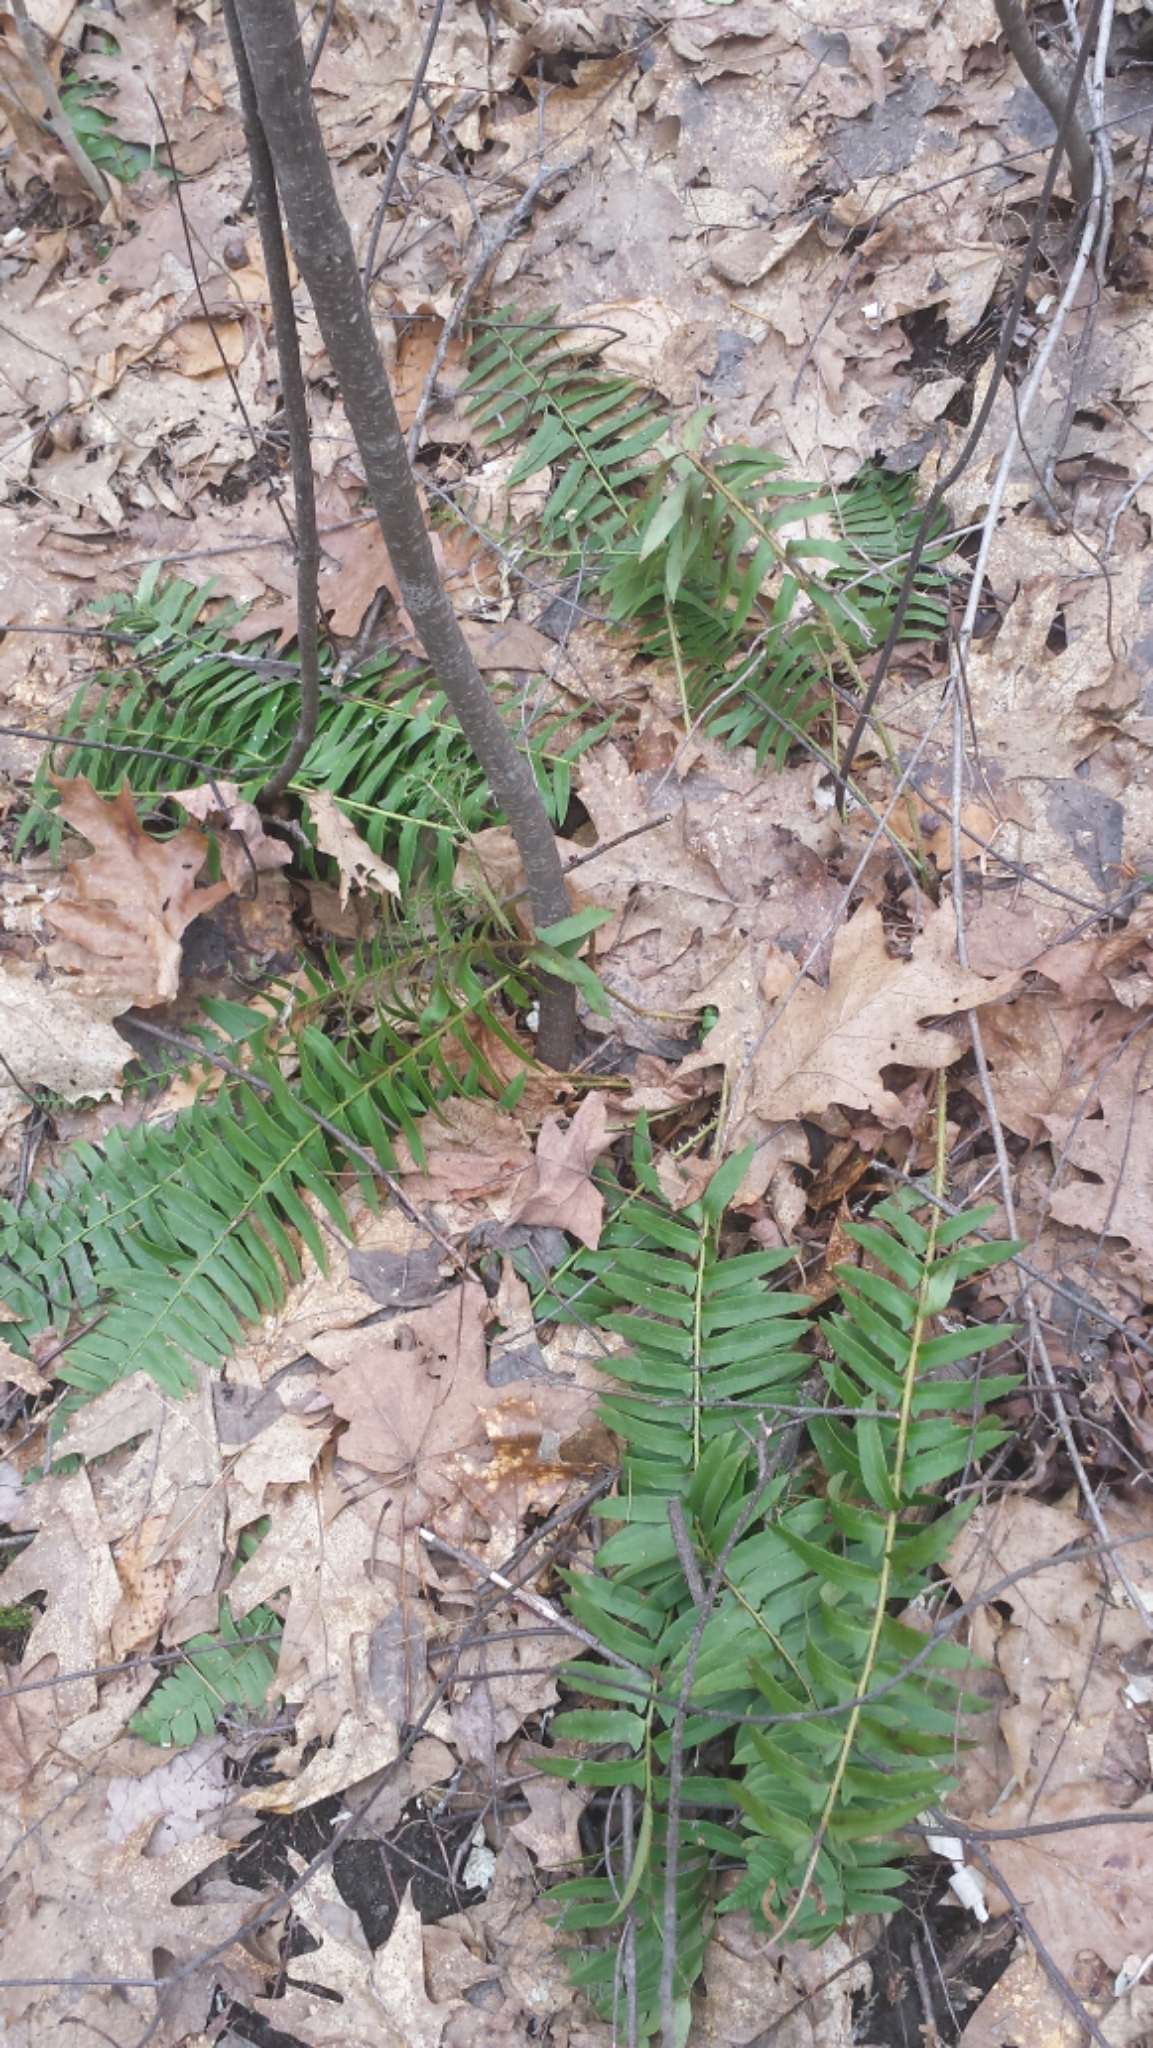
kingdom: Plantae
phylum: Tracheophyta
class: Polypodiopsida
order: Polypodiales
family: Dryopteridaceae
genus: Polystichum
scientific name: Polystichum acrostichoides
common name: Christmas fern
